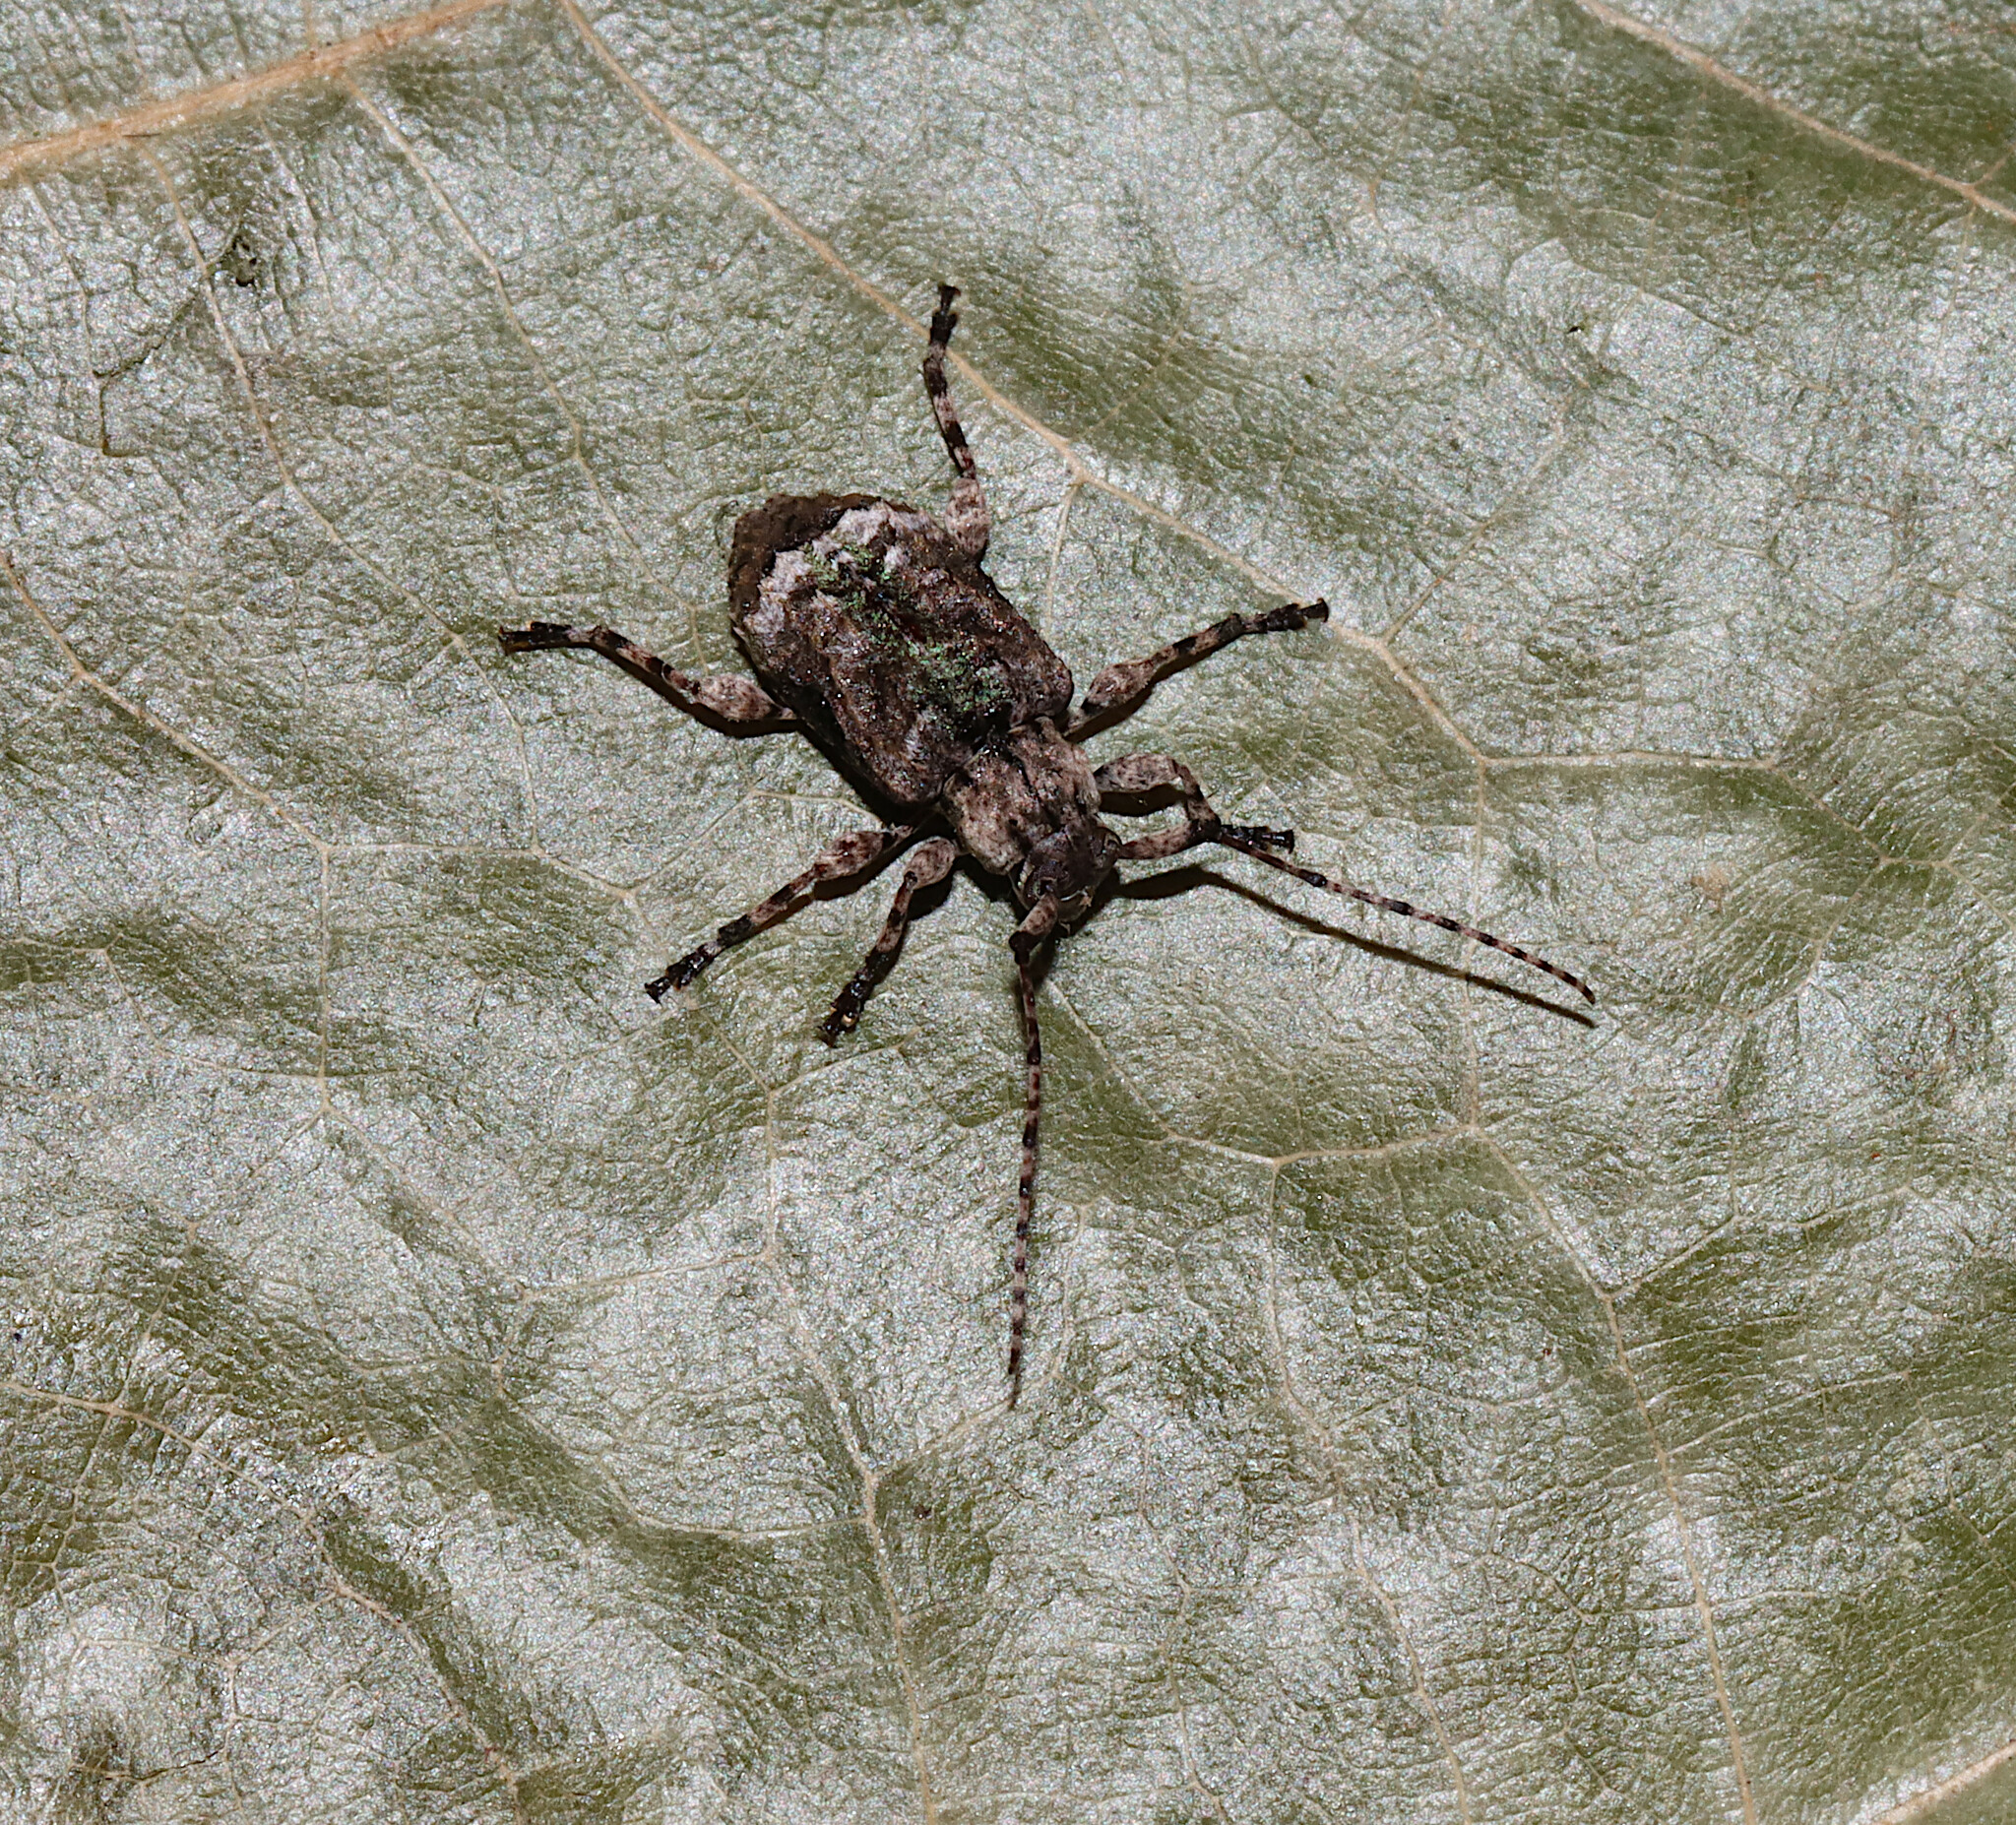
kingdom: Animalia
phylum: Arthropoda
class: Insecta
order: Coleoptera
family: Cerambycidae
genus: Leptostylus
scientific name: Leptostylus transversus
